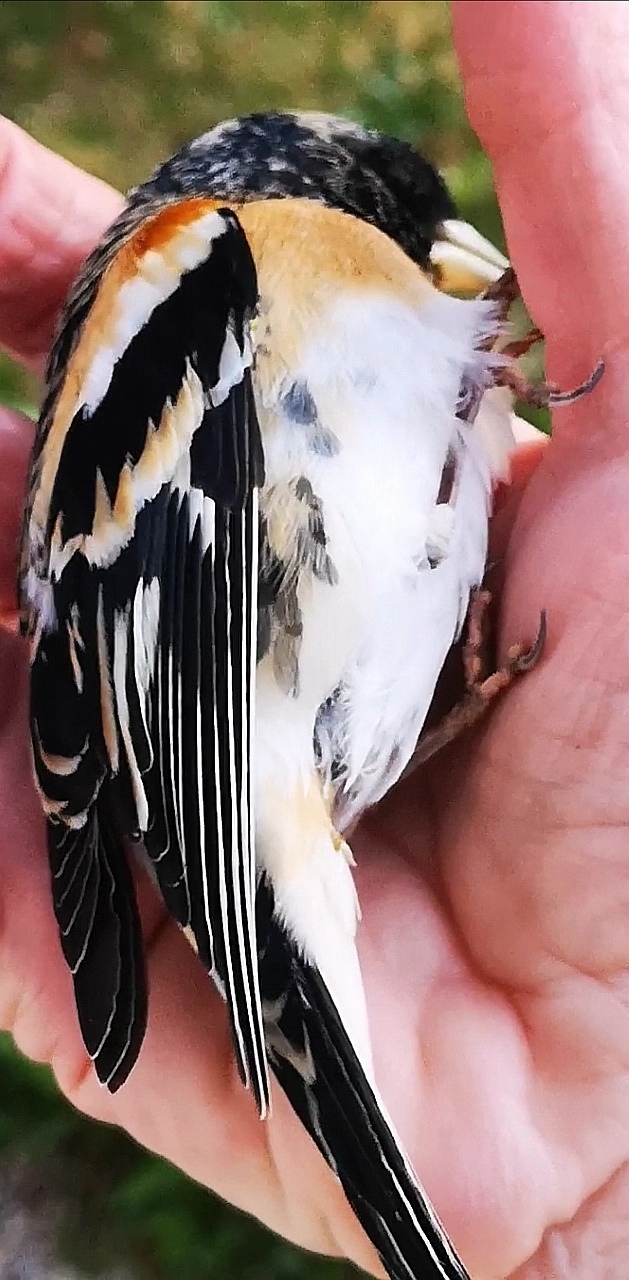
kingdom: Animalia
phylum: Chordata
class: Aves
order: Passeriformes
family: Fringillidae
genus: Fringilla
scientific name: Fringilla montifringilla
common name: Brambling
